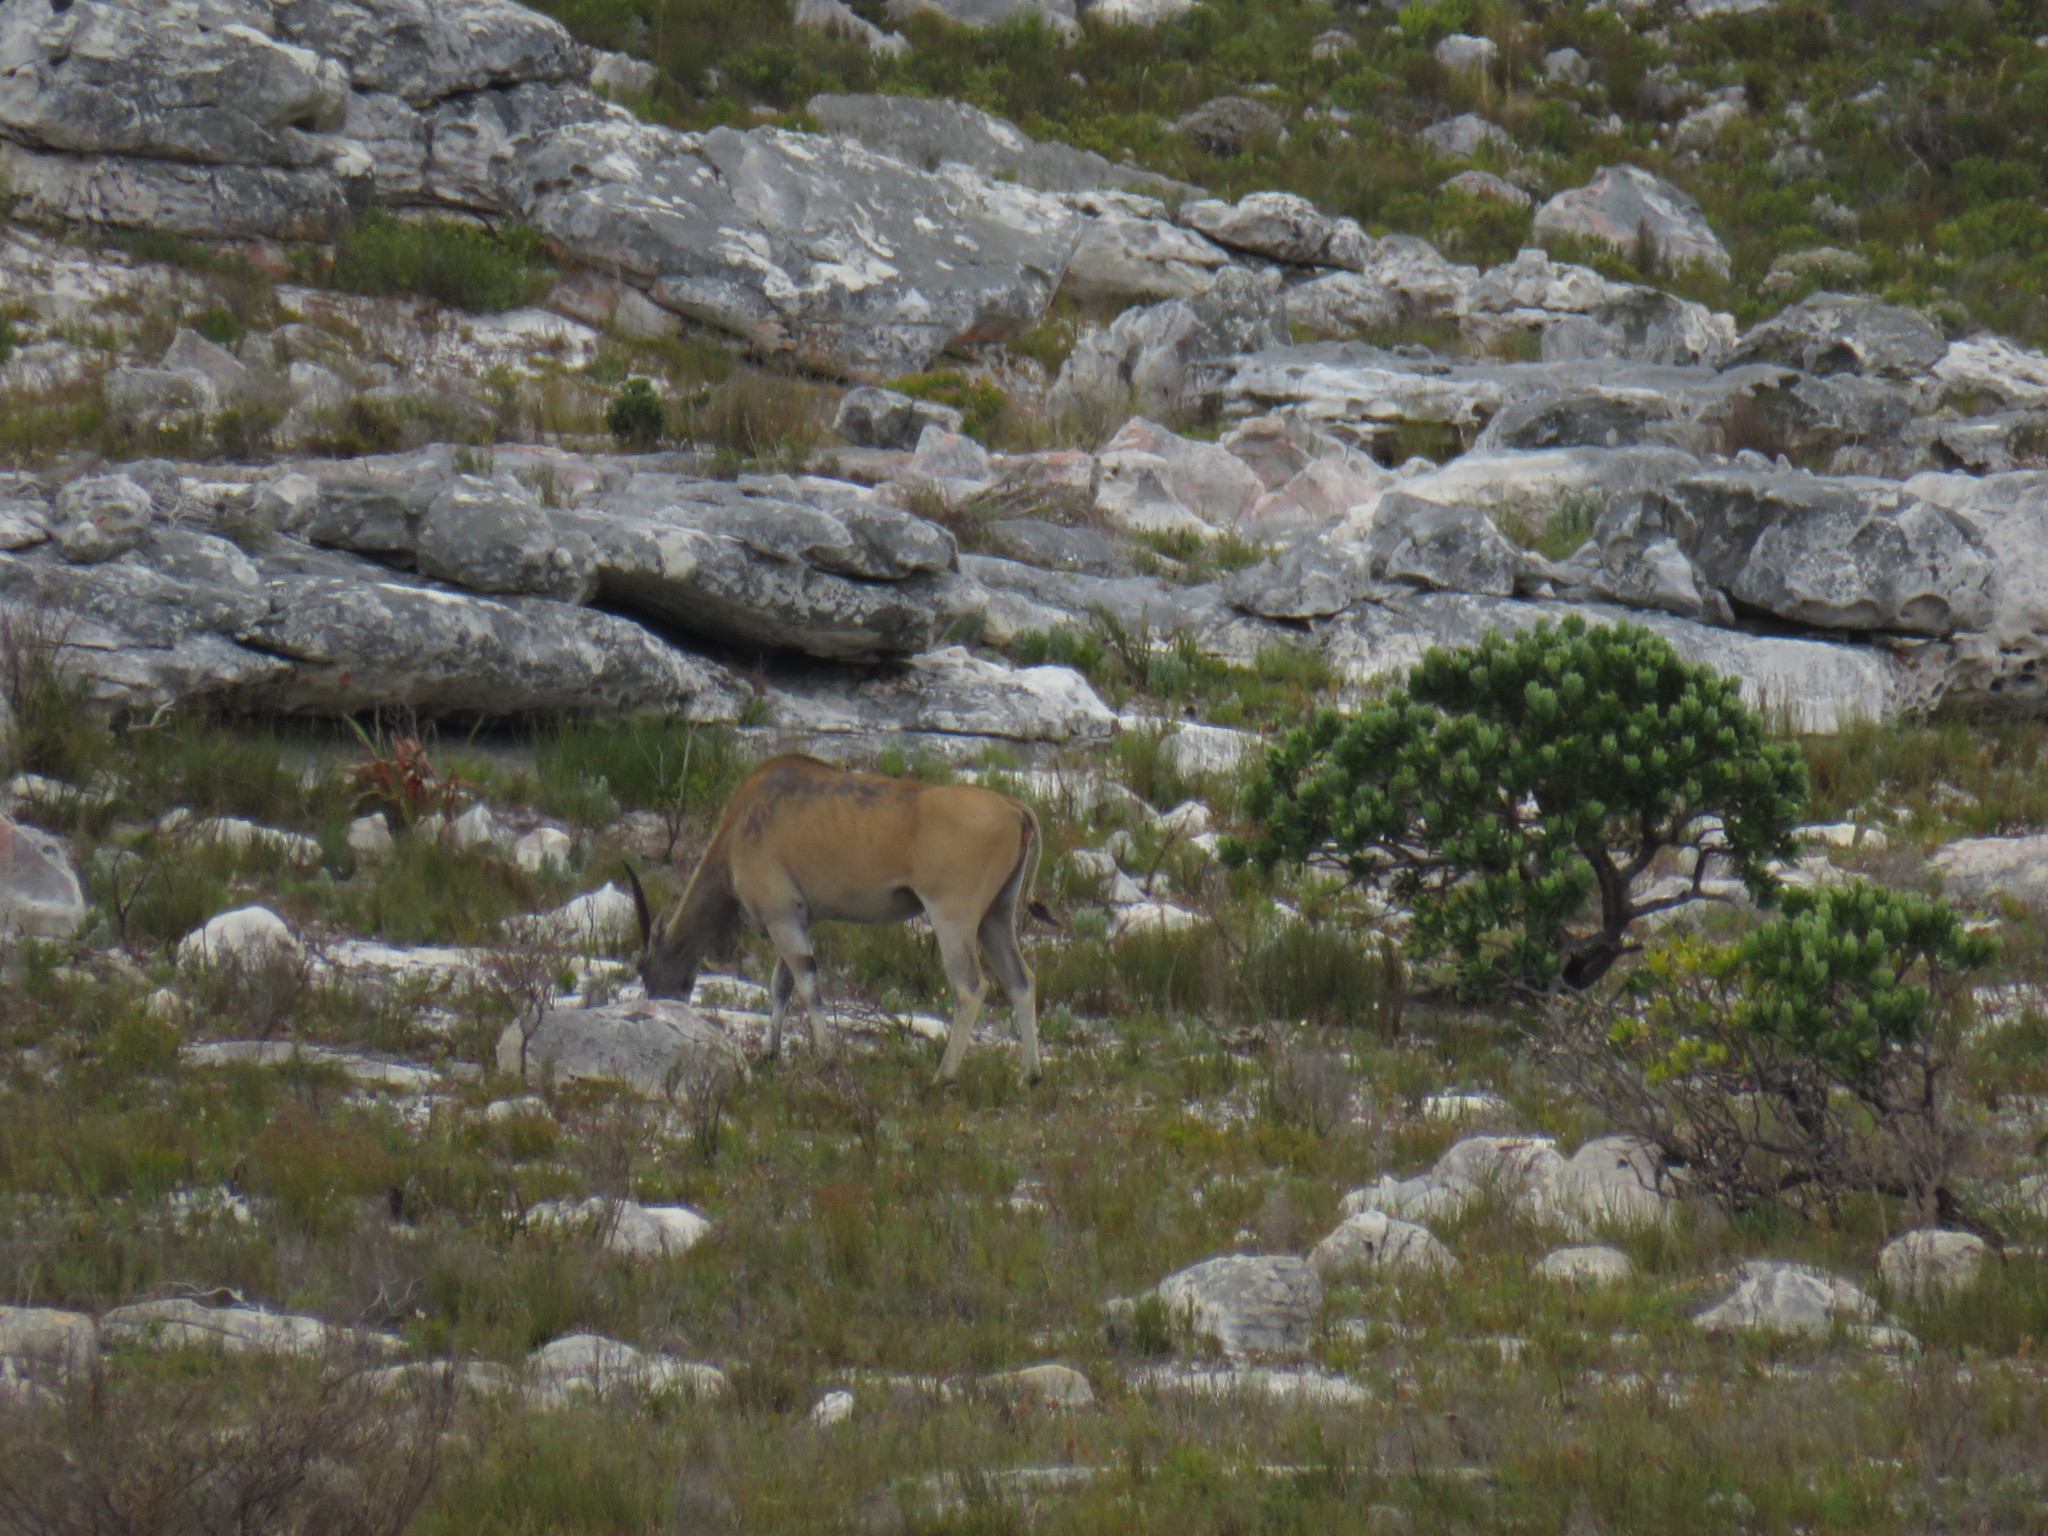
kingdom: Animalia
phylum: Chordata
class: Mammalia
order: Artiodactyla
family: Bovidae
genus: Taurotragus
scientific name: Taurotragus oryx
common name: Common eland
